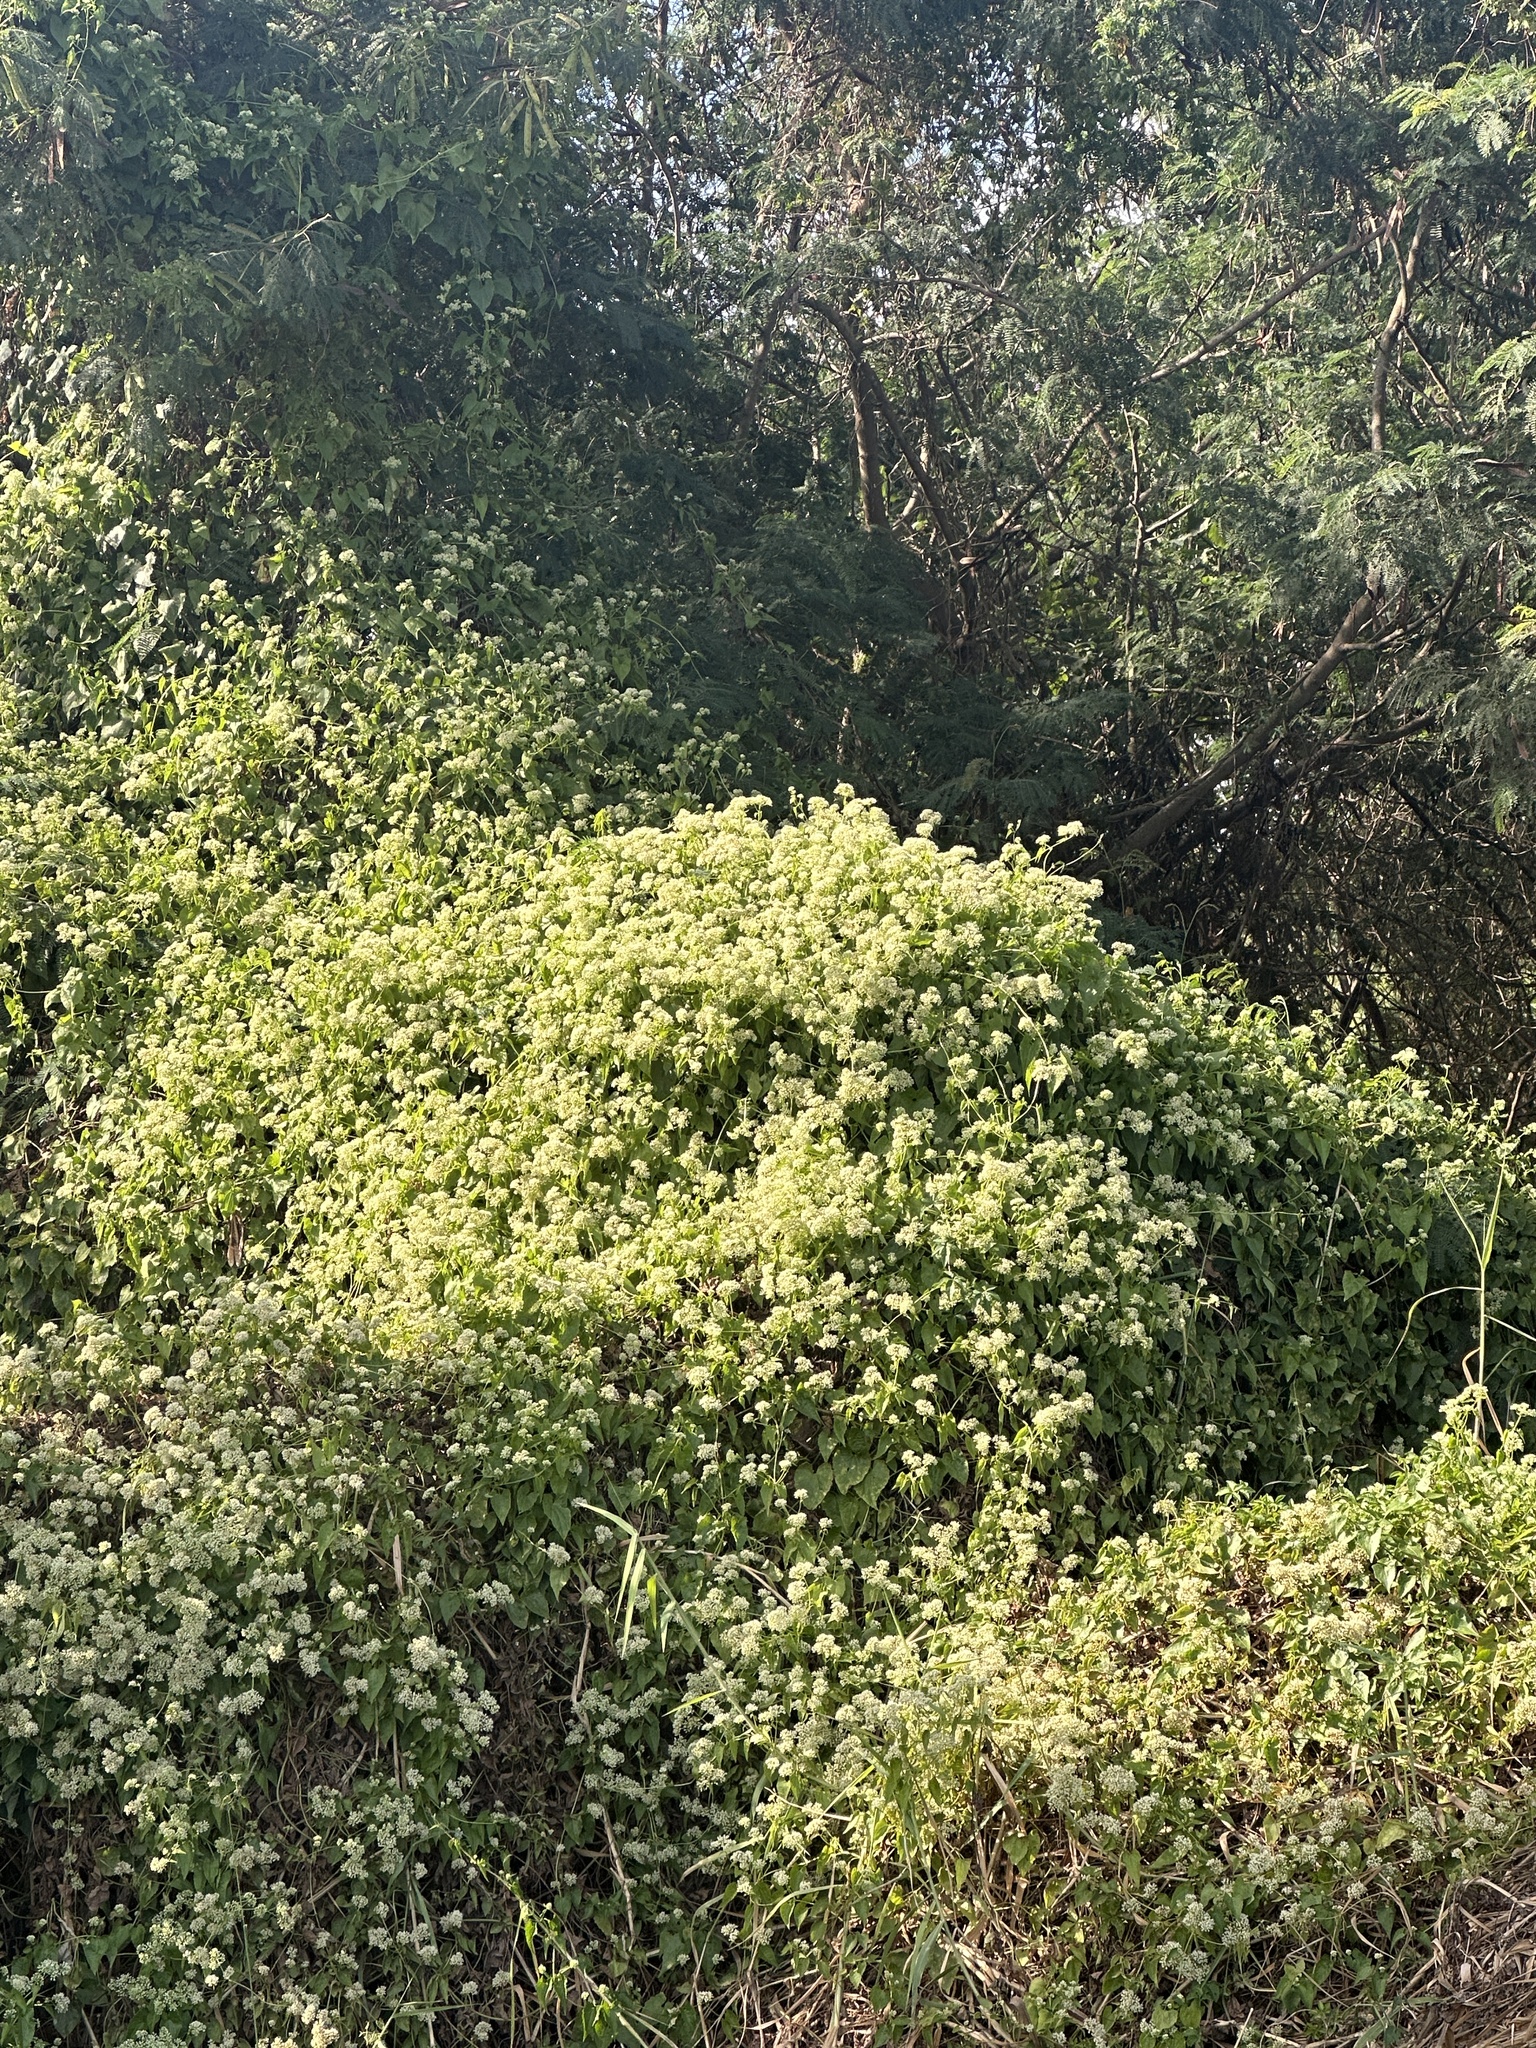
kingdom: Plantae
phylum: Tracheophyta
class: Magnoliopsida
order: Asterales
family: Asteraceae
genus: Mikania
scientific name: Mikania micrantha
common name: Mile-a-minute
